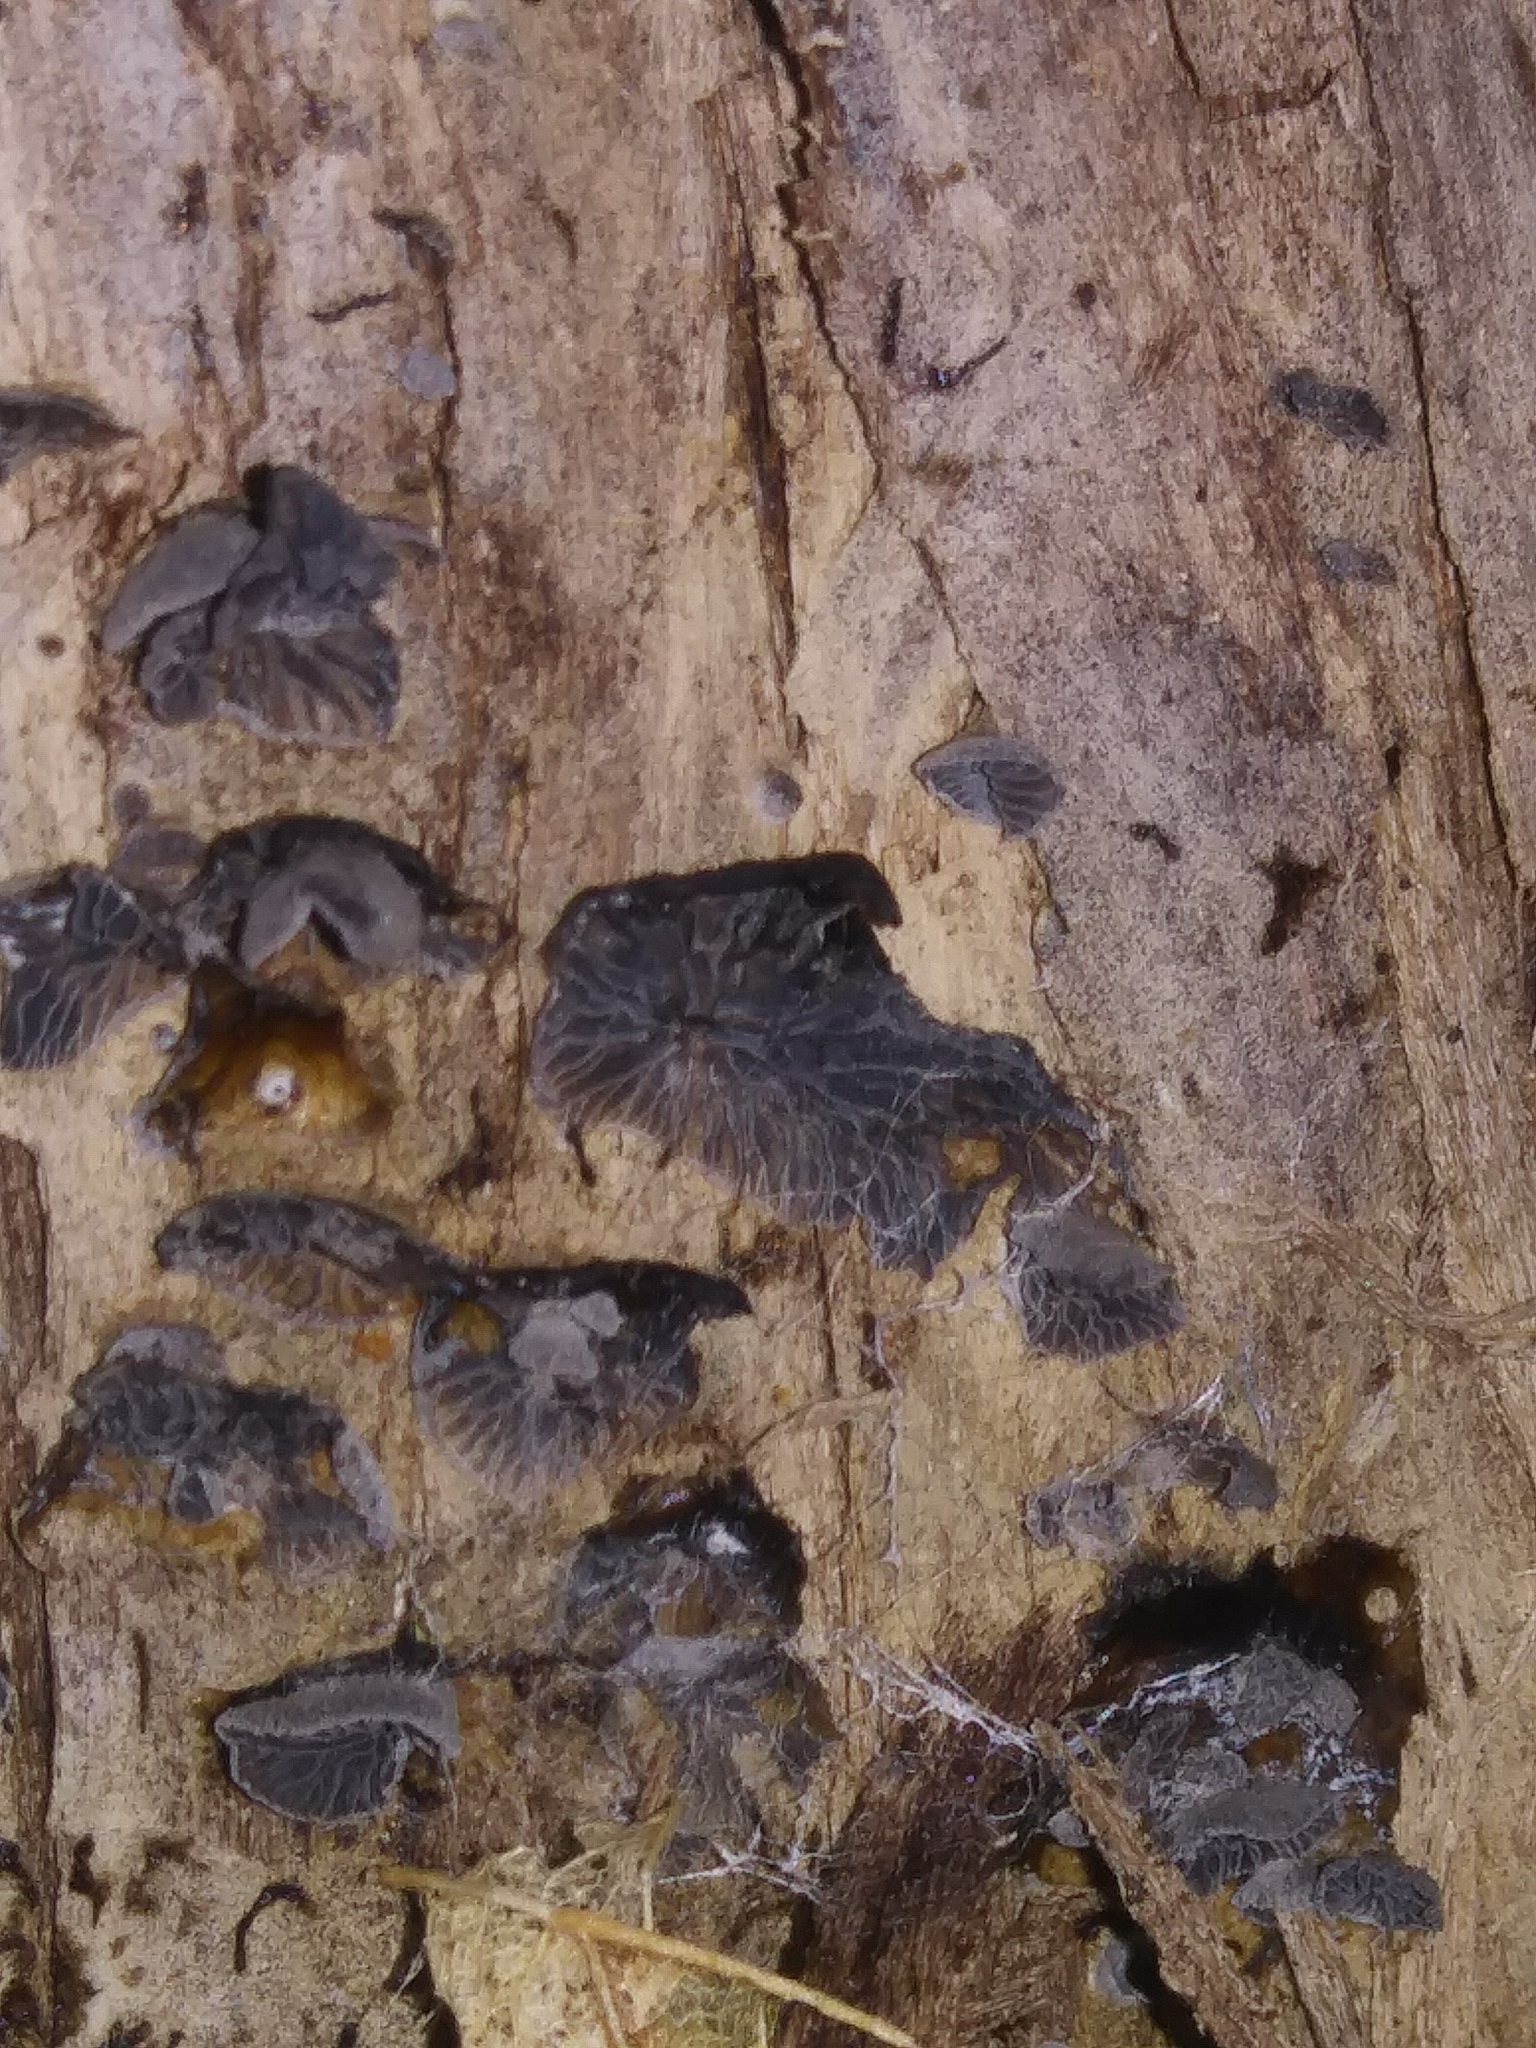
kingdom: Fungi
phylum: Basidiomycota
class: Agaricomycetes
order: Agaricales
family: Pleurotaceae
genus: Resupinatus
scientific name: Resupinatus alboniger
